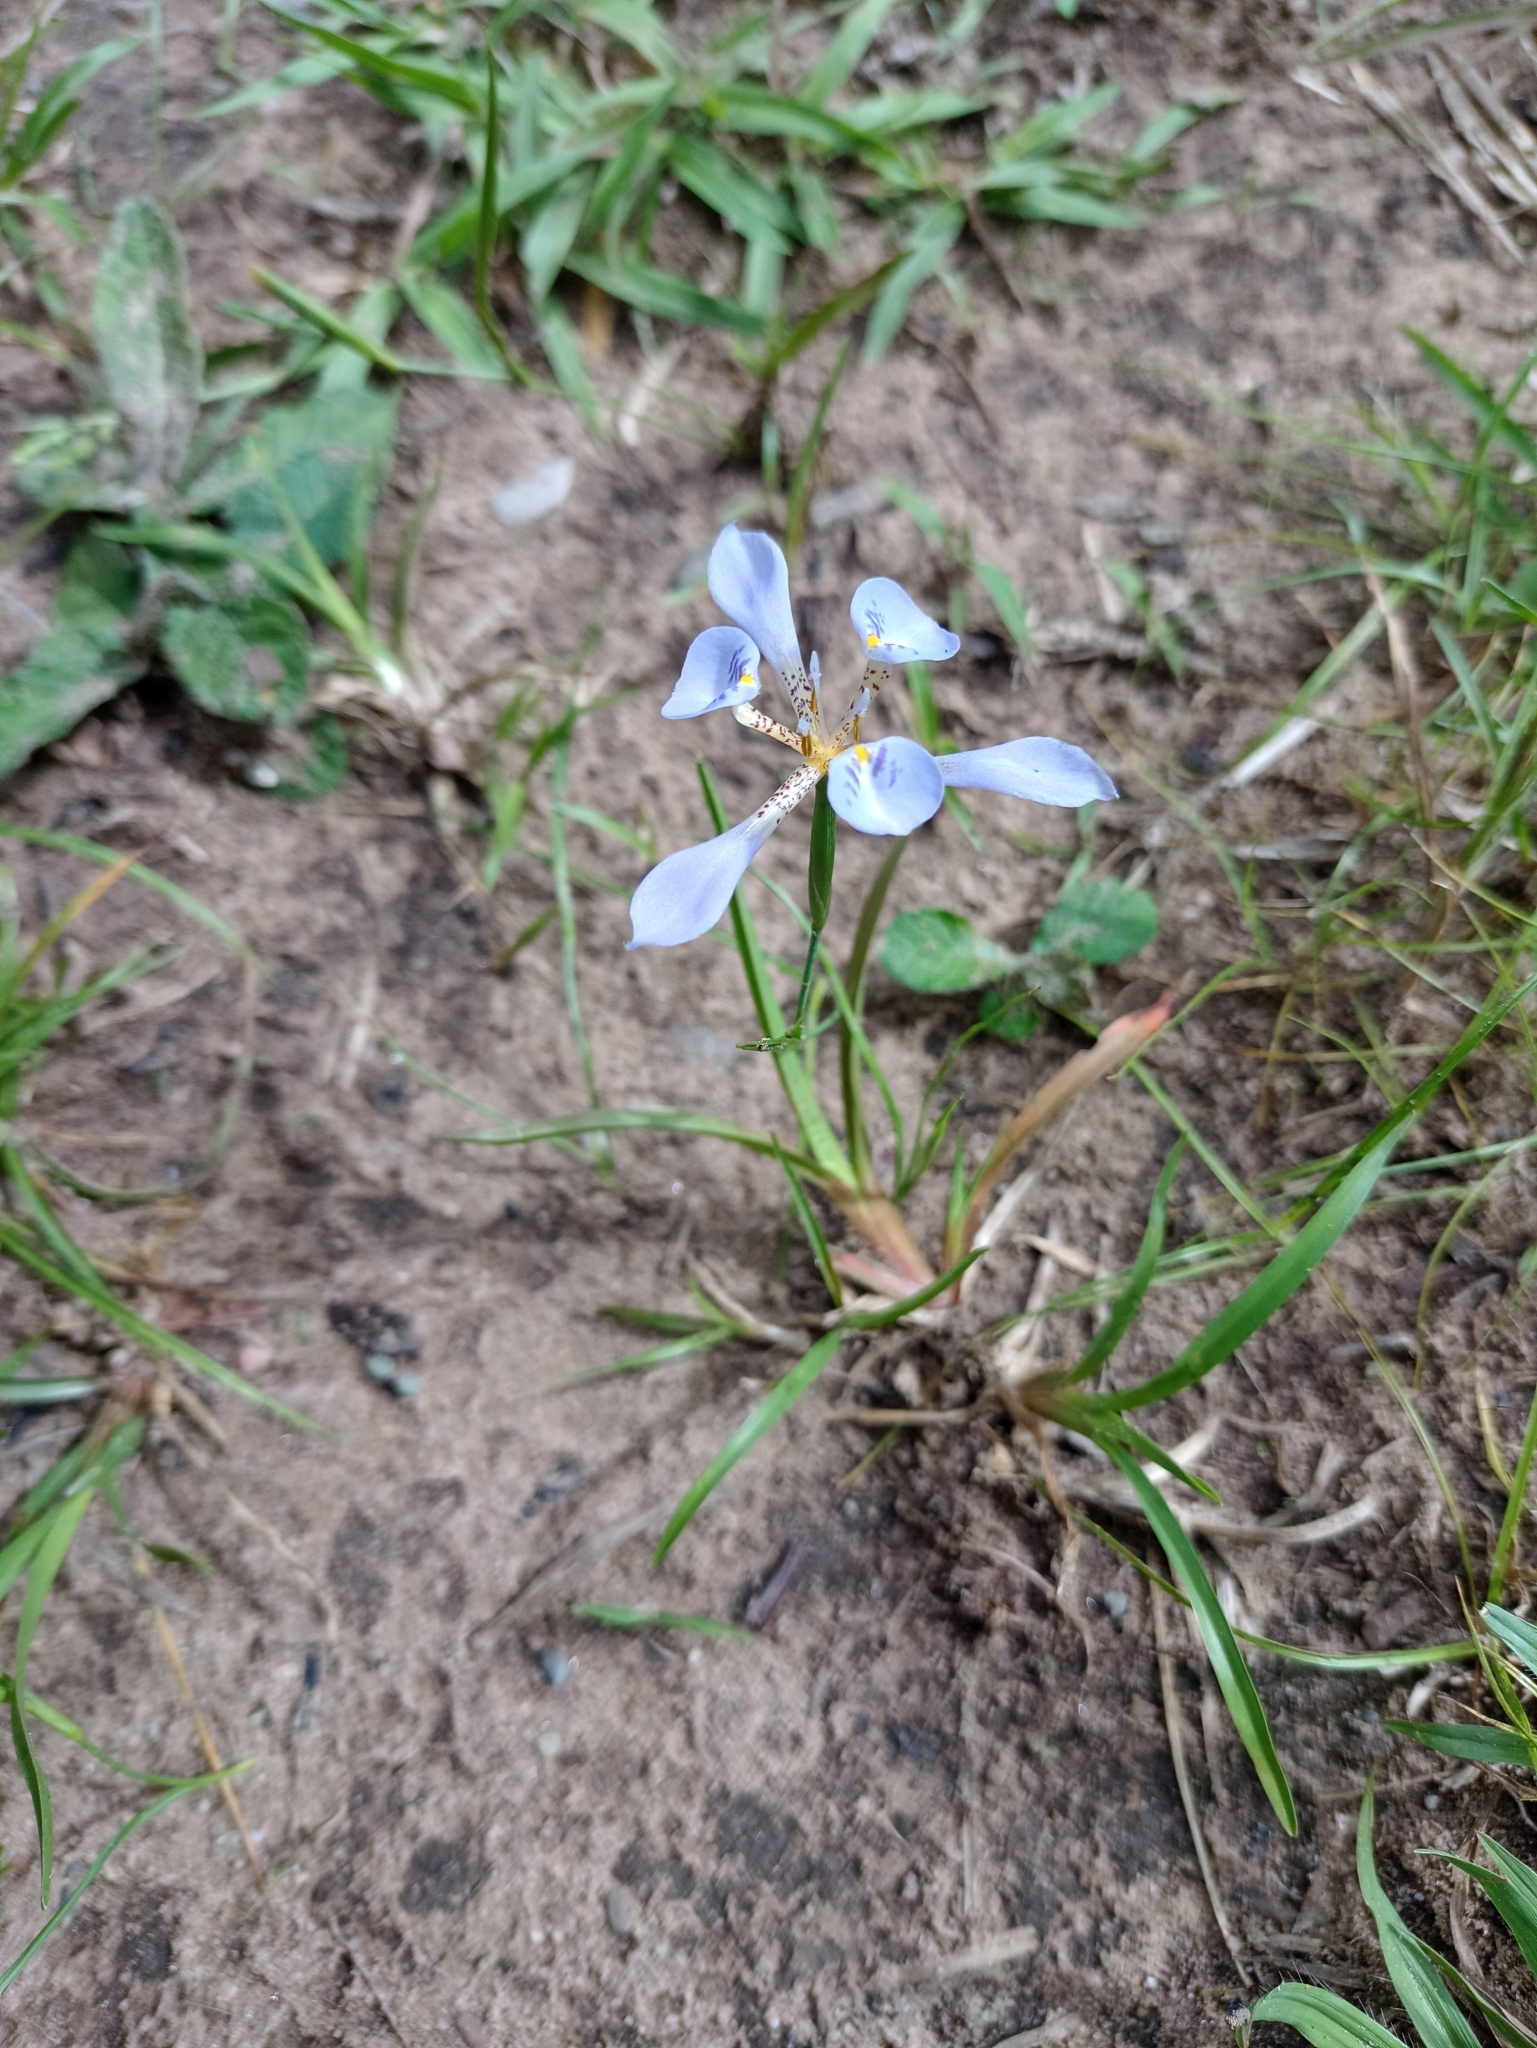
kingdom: Plantae
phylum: Tracheophyta
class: Liliopsida
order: Asparagales
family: Iridaceae
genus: Larentia
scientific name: Larentia linearis
